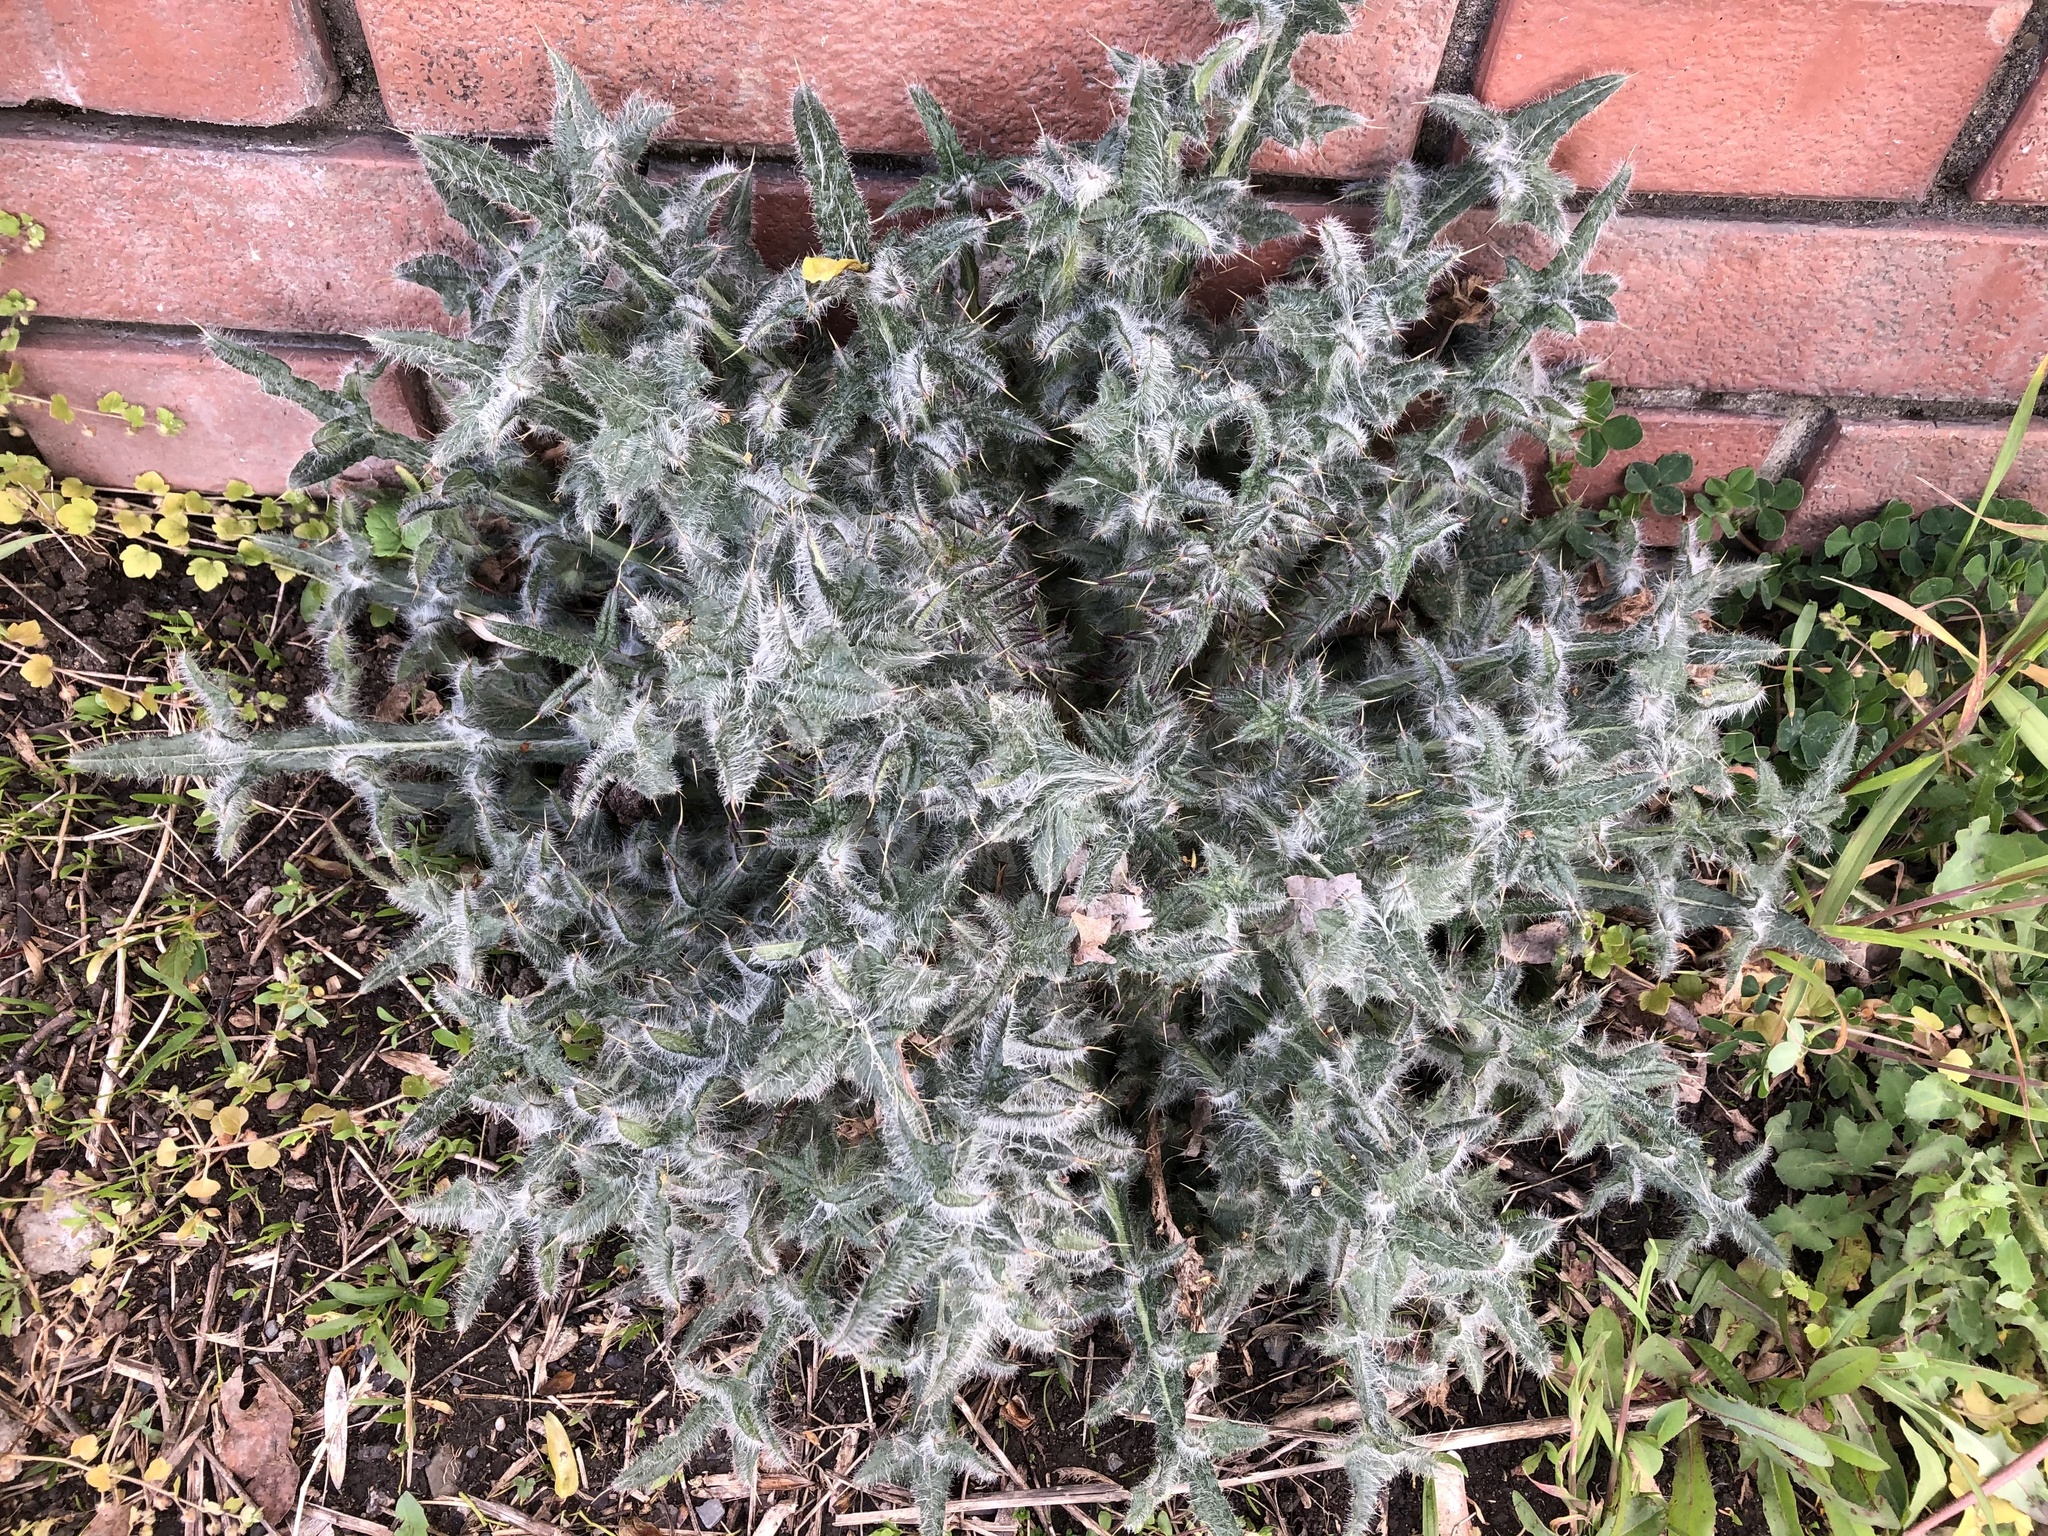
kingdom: Plantae
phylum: Tracheophyta
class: Magnoliopsida
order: Asterales
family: Asteraceae
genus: Cirsium
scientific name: Cirsium vulgare
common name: Bull thistle
